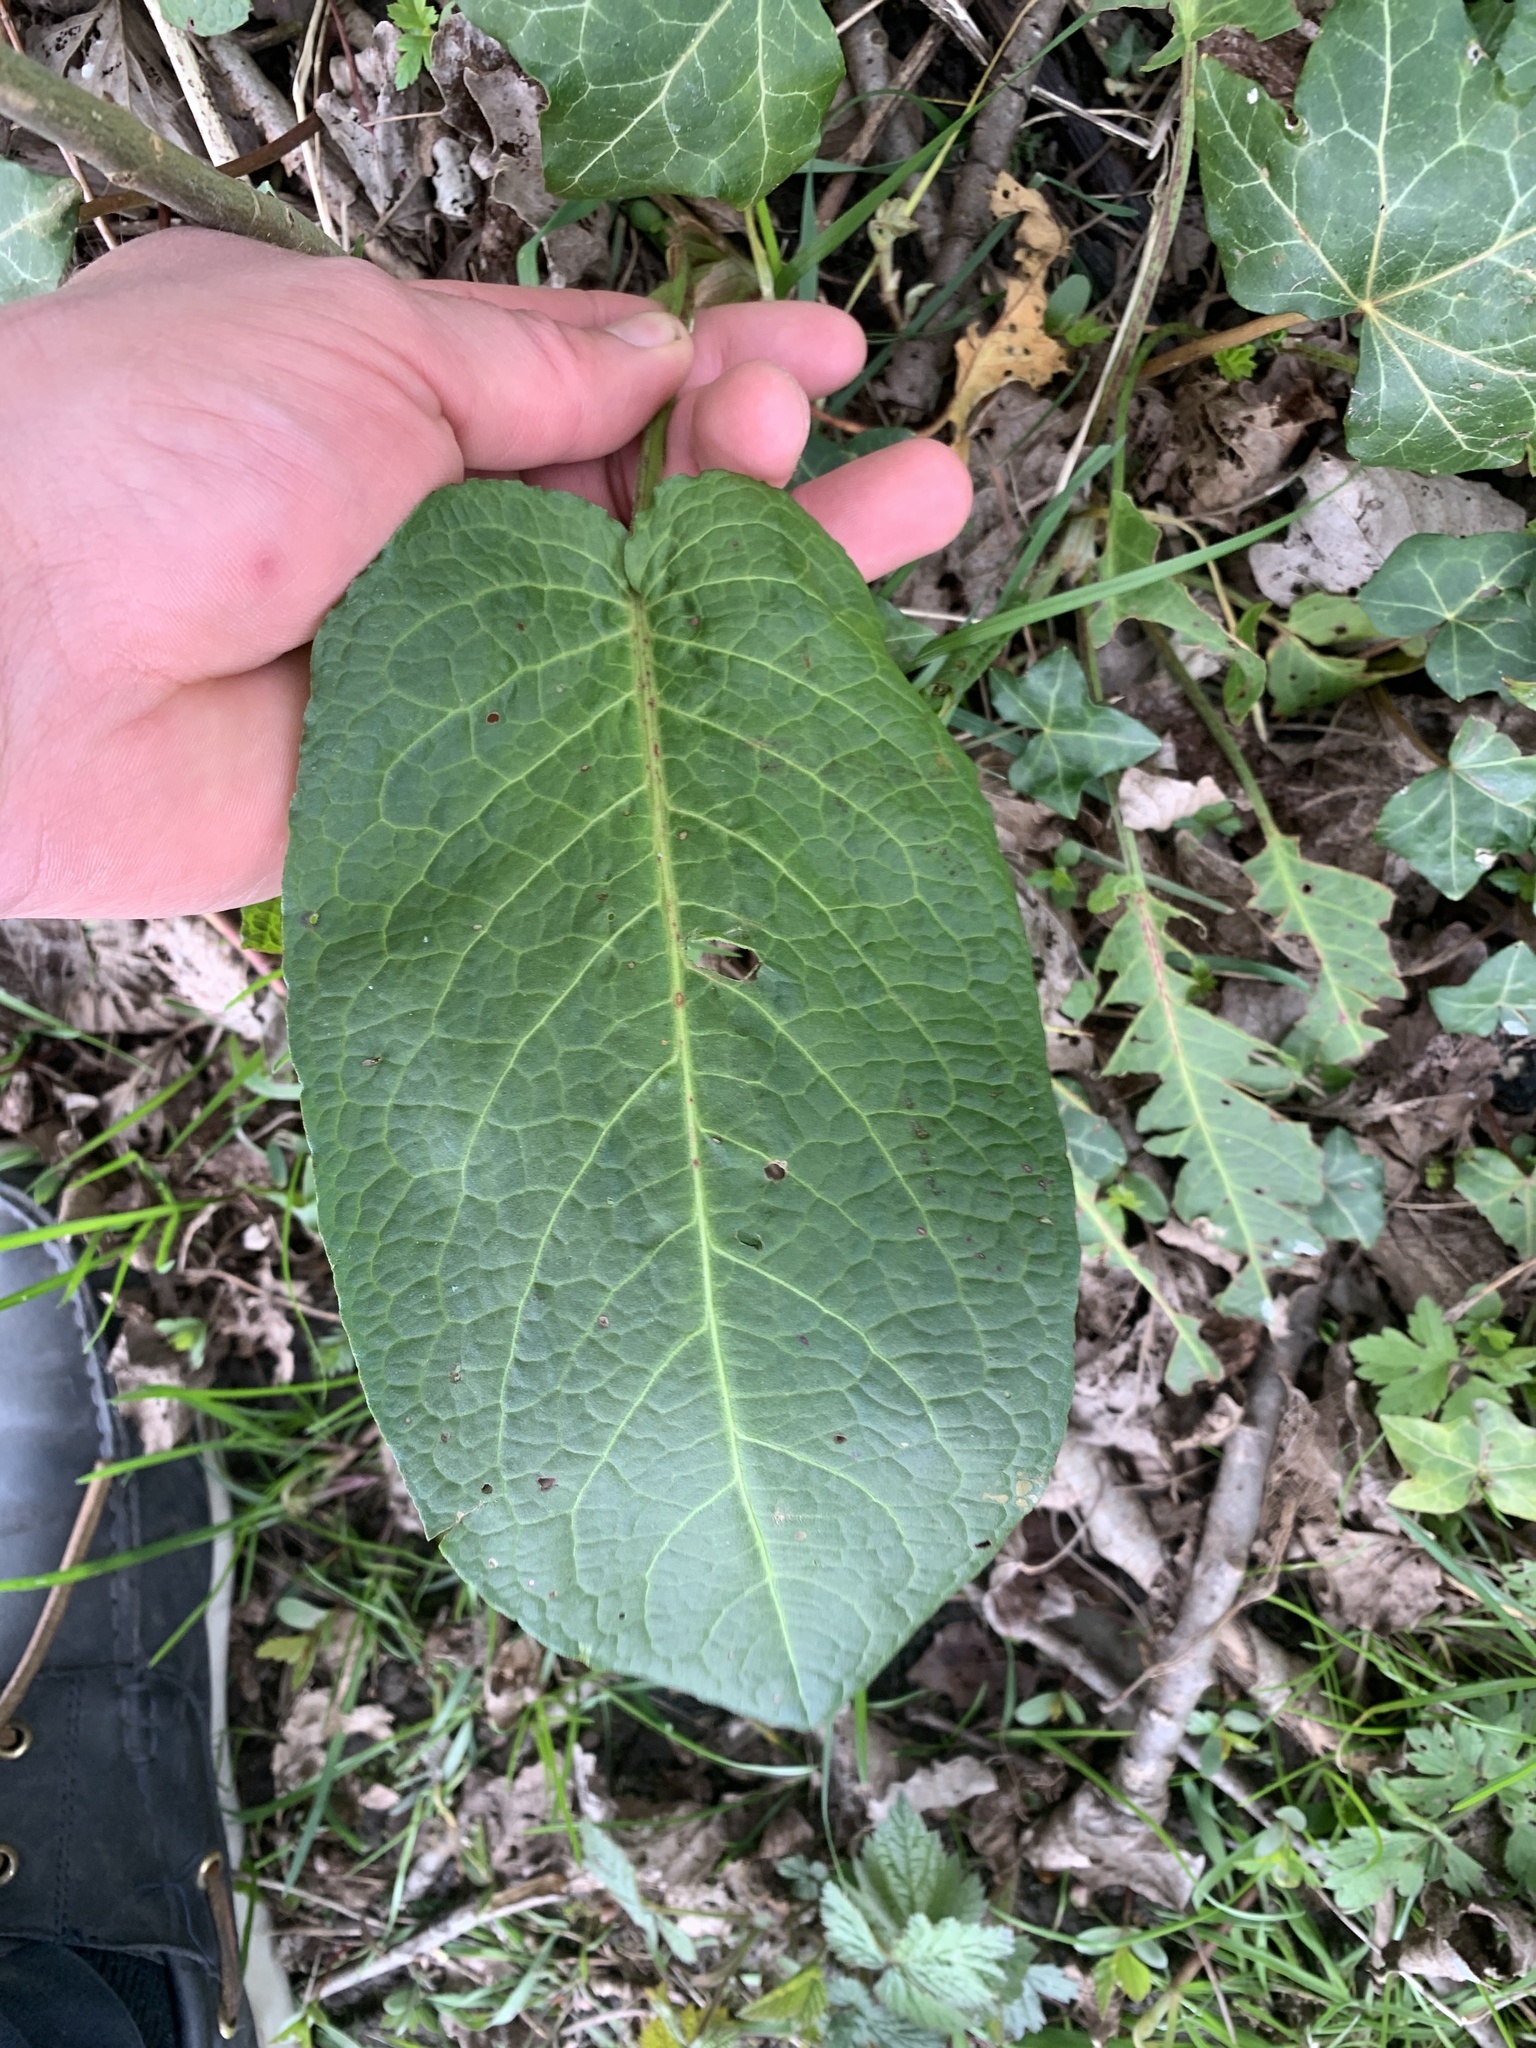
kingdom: Plantae
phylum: Tracheophyta
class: Magnoliopsida
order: Caryophyllales
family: Polygonaceae
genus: Rumex
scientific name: Rumex obtusifolius
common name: Bitter dock
